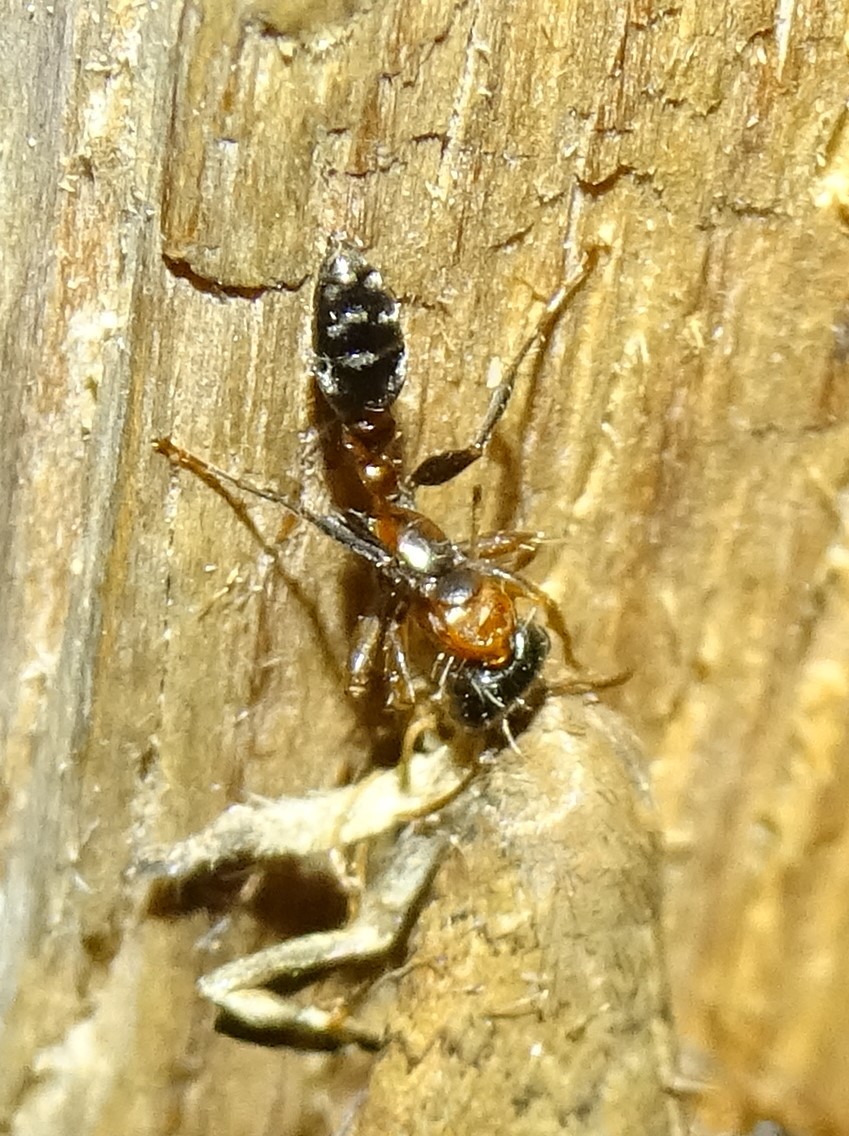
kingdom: Animalia
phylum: Arthropoda
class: Insecta
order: Hymenoptera
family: Formicidae
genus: Pseudomyrmex
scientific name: Pseudomyrmex gracilis
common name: Graceful twig ant
